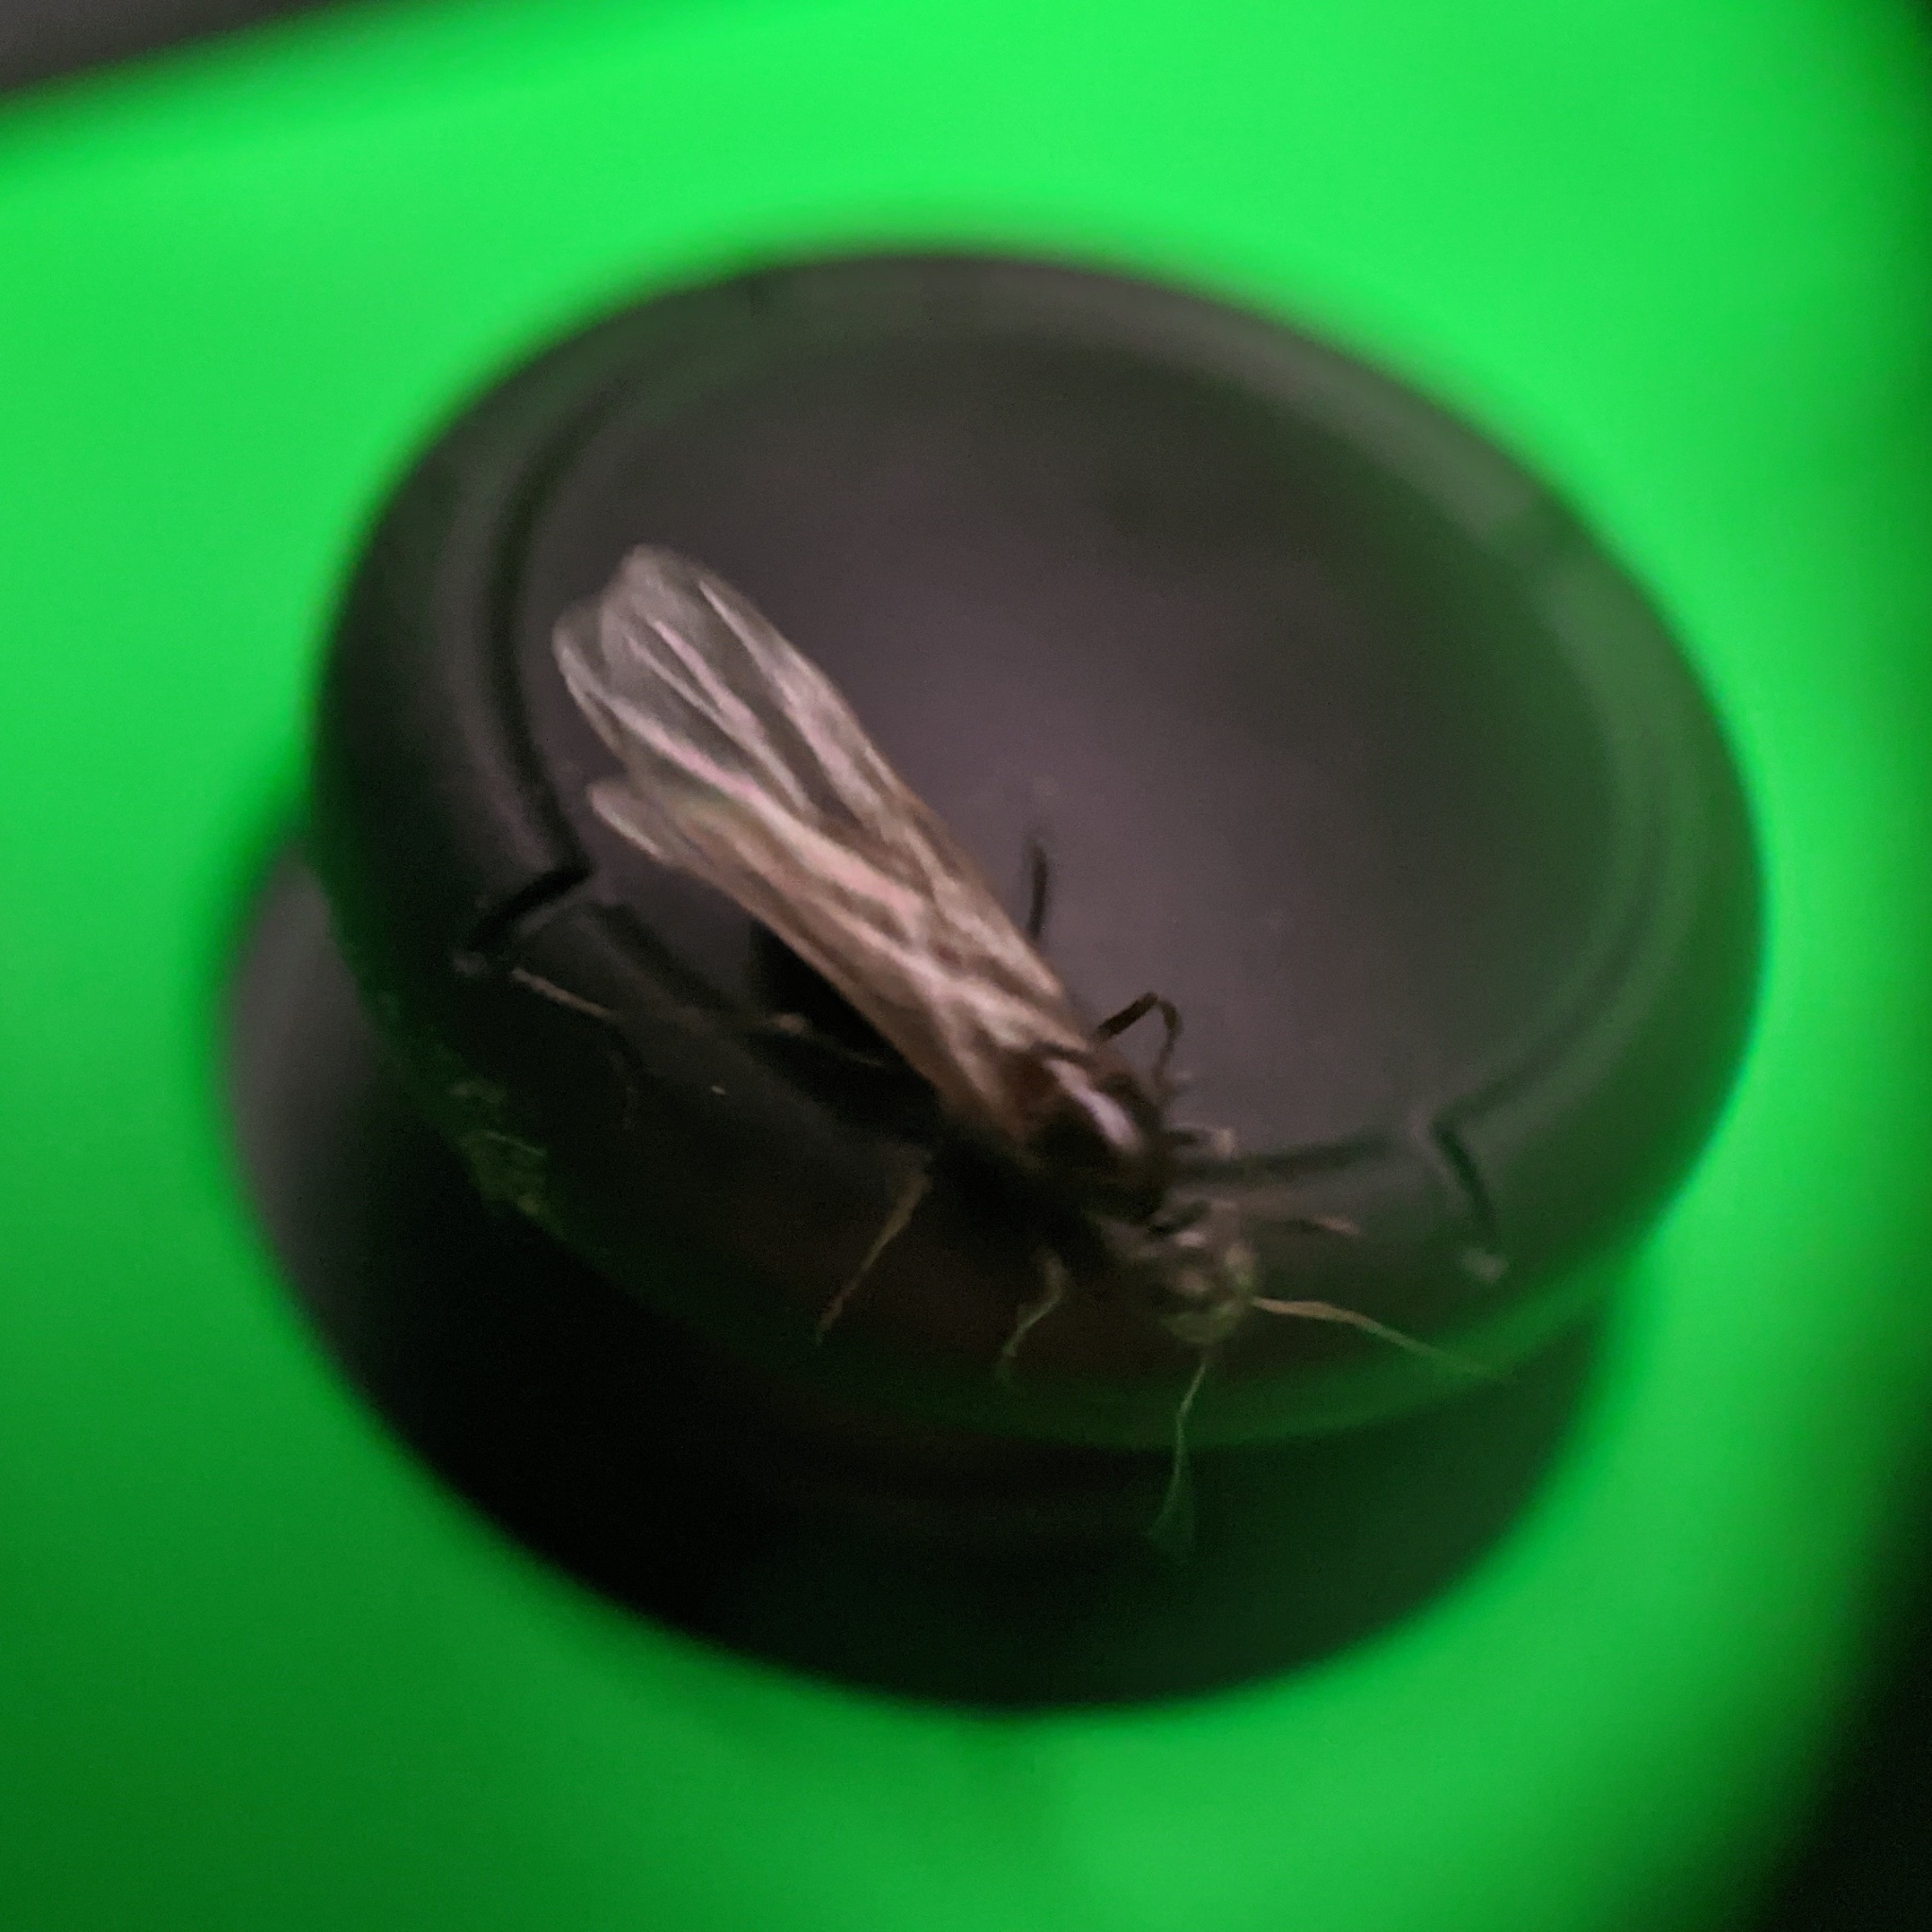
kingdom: Animalia
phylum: Arthropoda
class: Insecta
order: Hymenoptera
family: Formicidae
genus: Dorymyrmex
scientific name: Dorymyrmex grandulus
